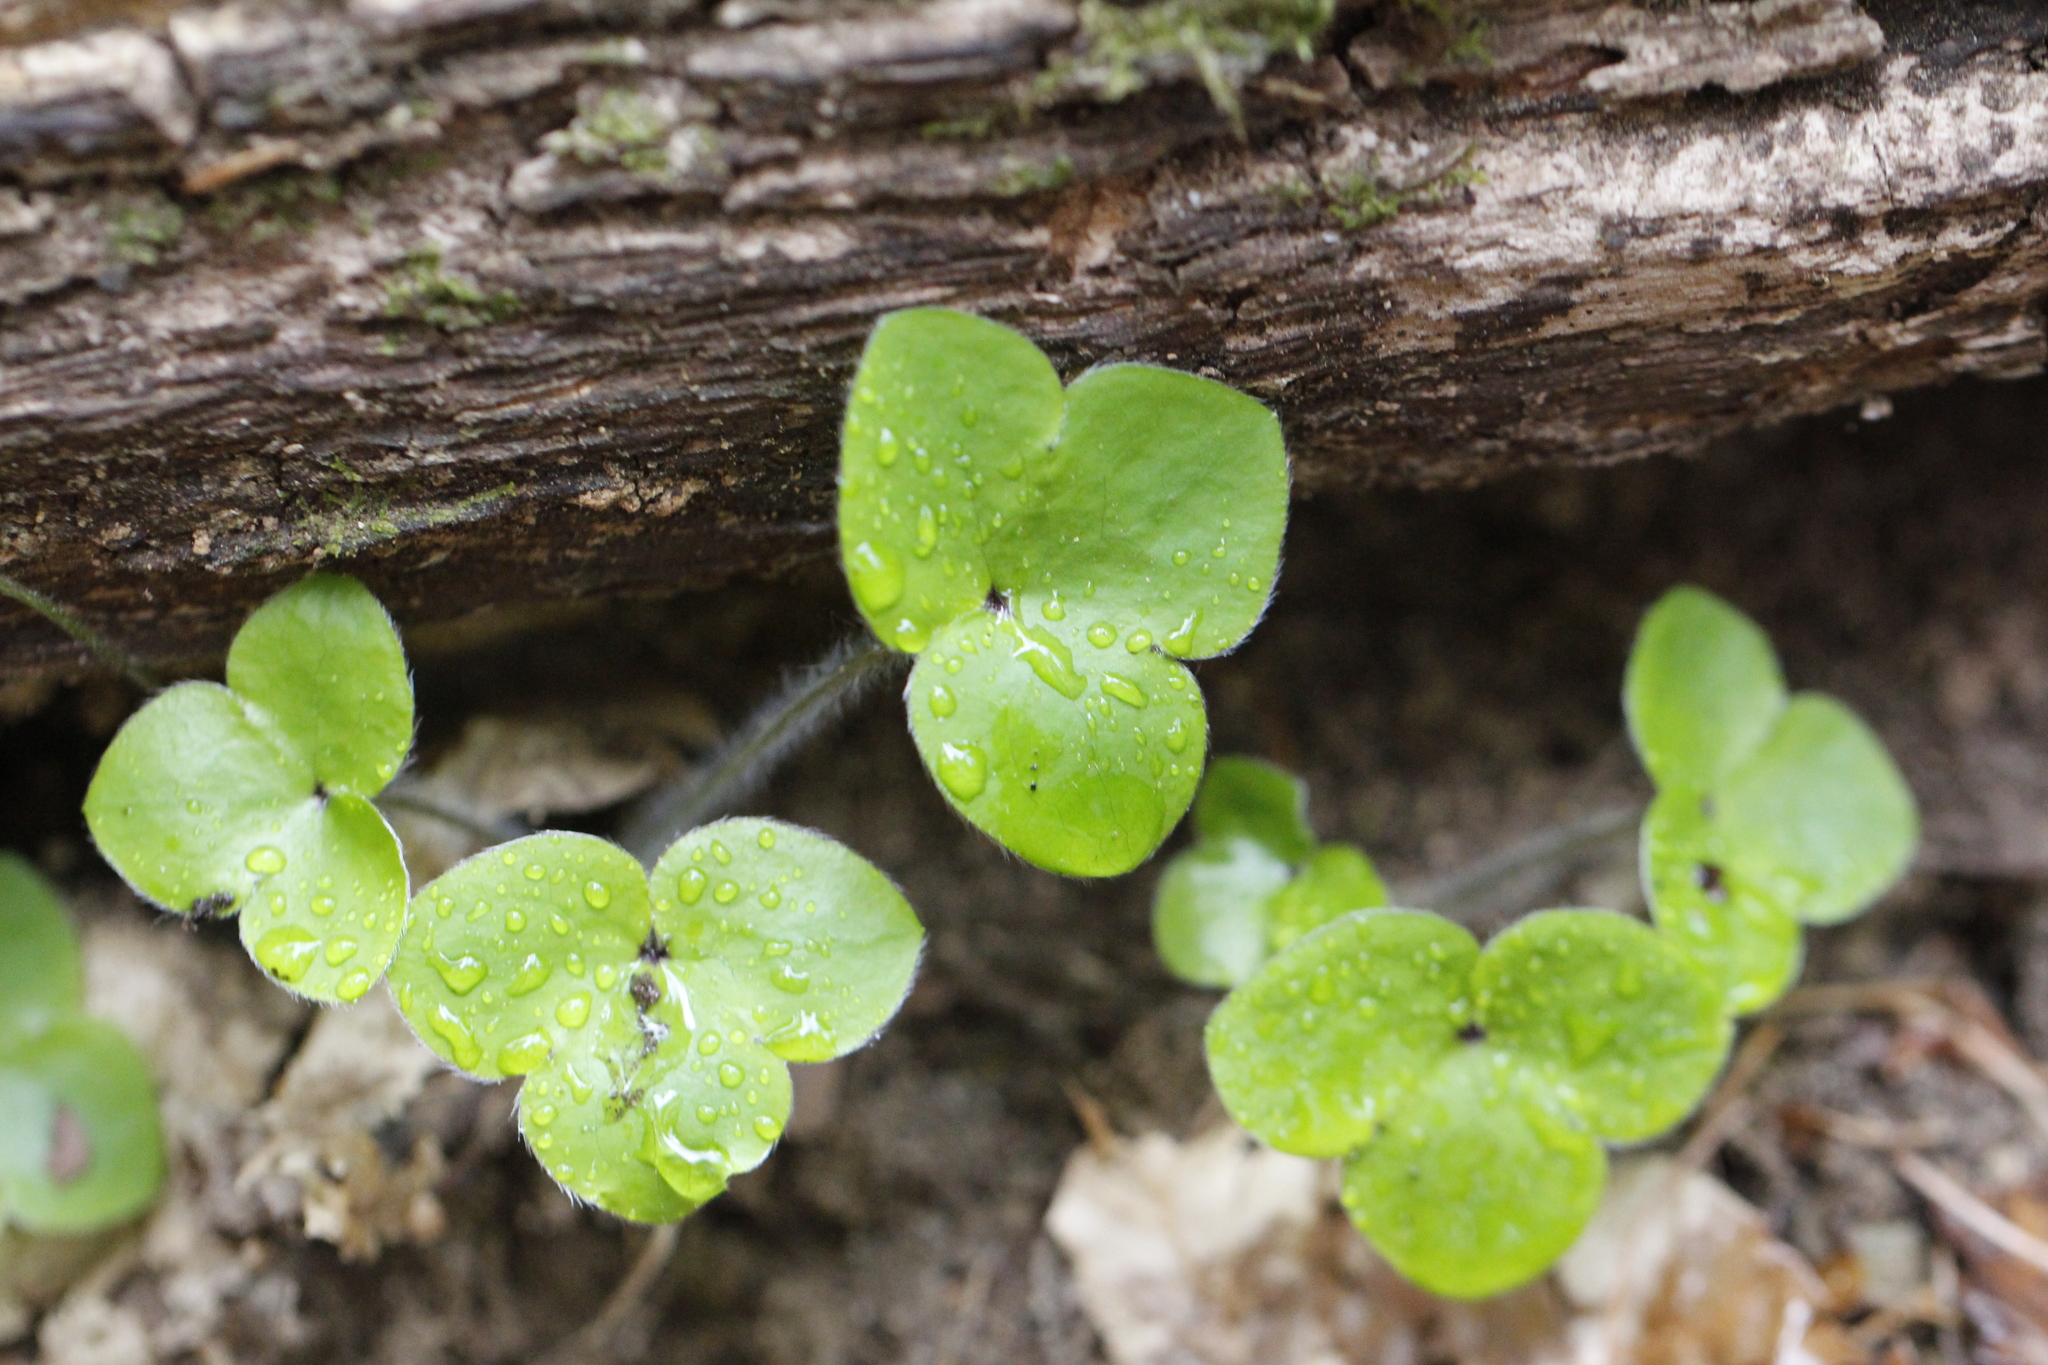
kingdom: Plantae
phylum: Tracheophyta
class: Magnoliopsida
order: Ranunculales
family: Ranunculaceae
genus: Hepatica
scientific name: Hepatica nobilis
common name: Liverleaf
